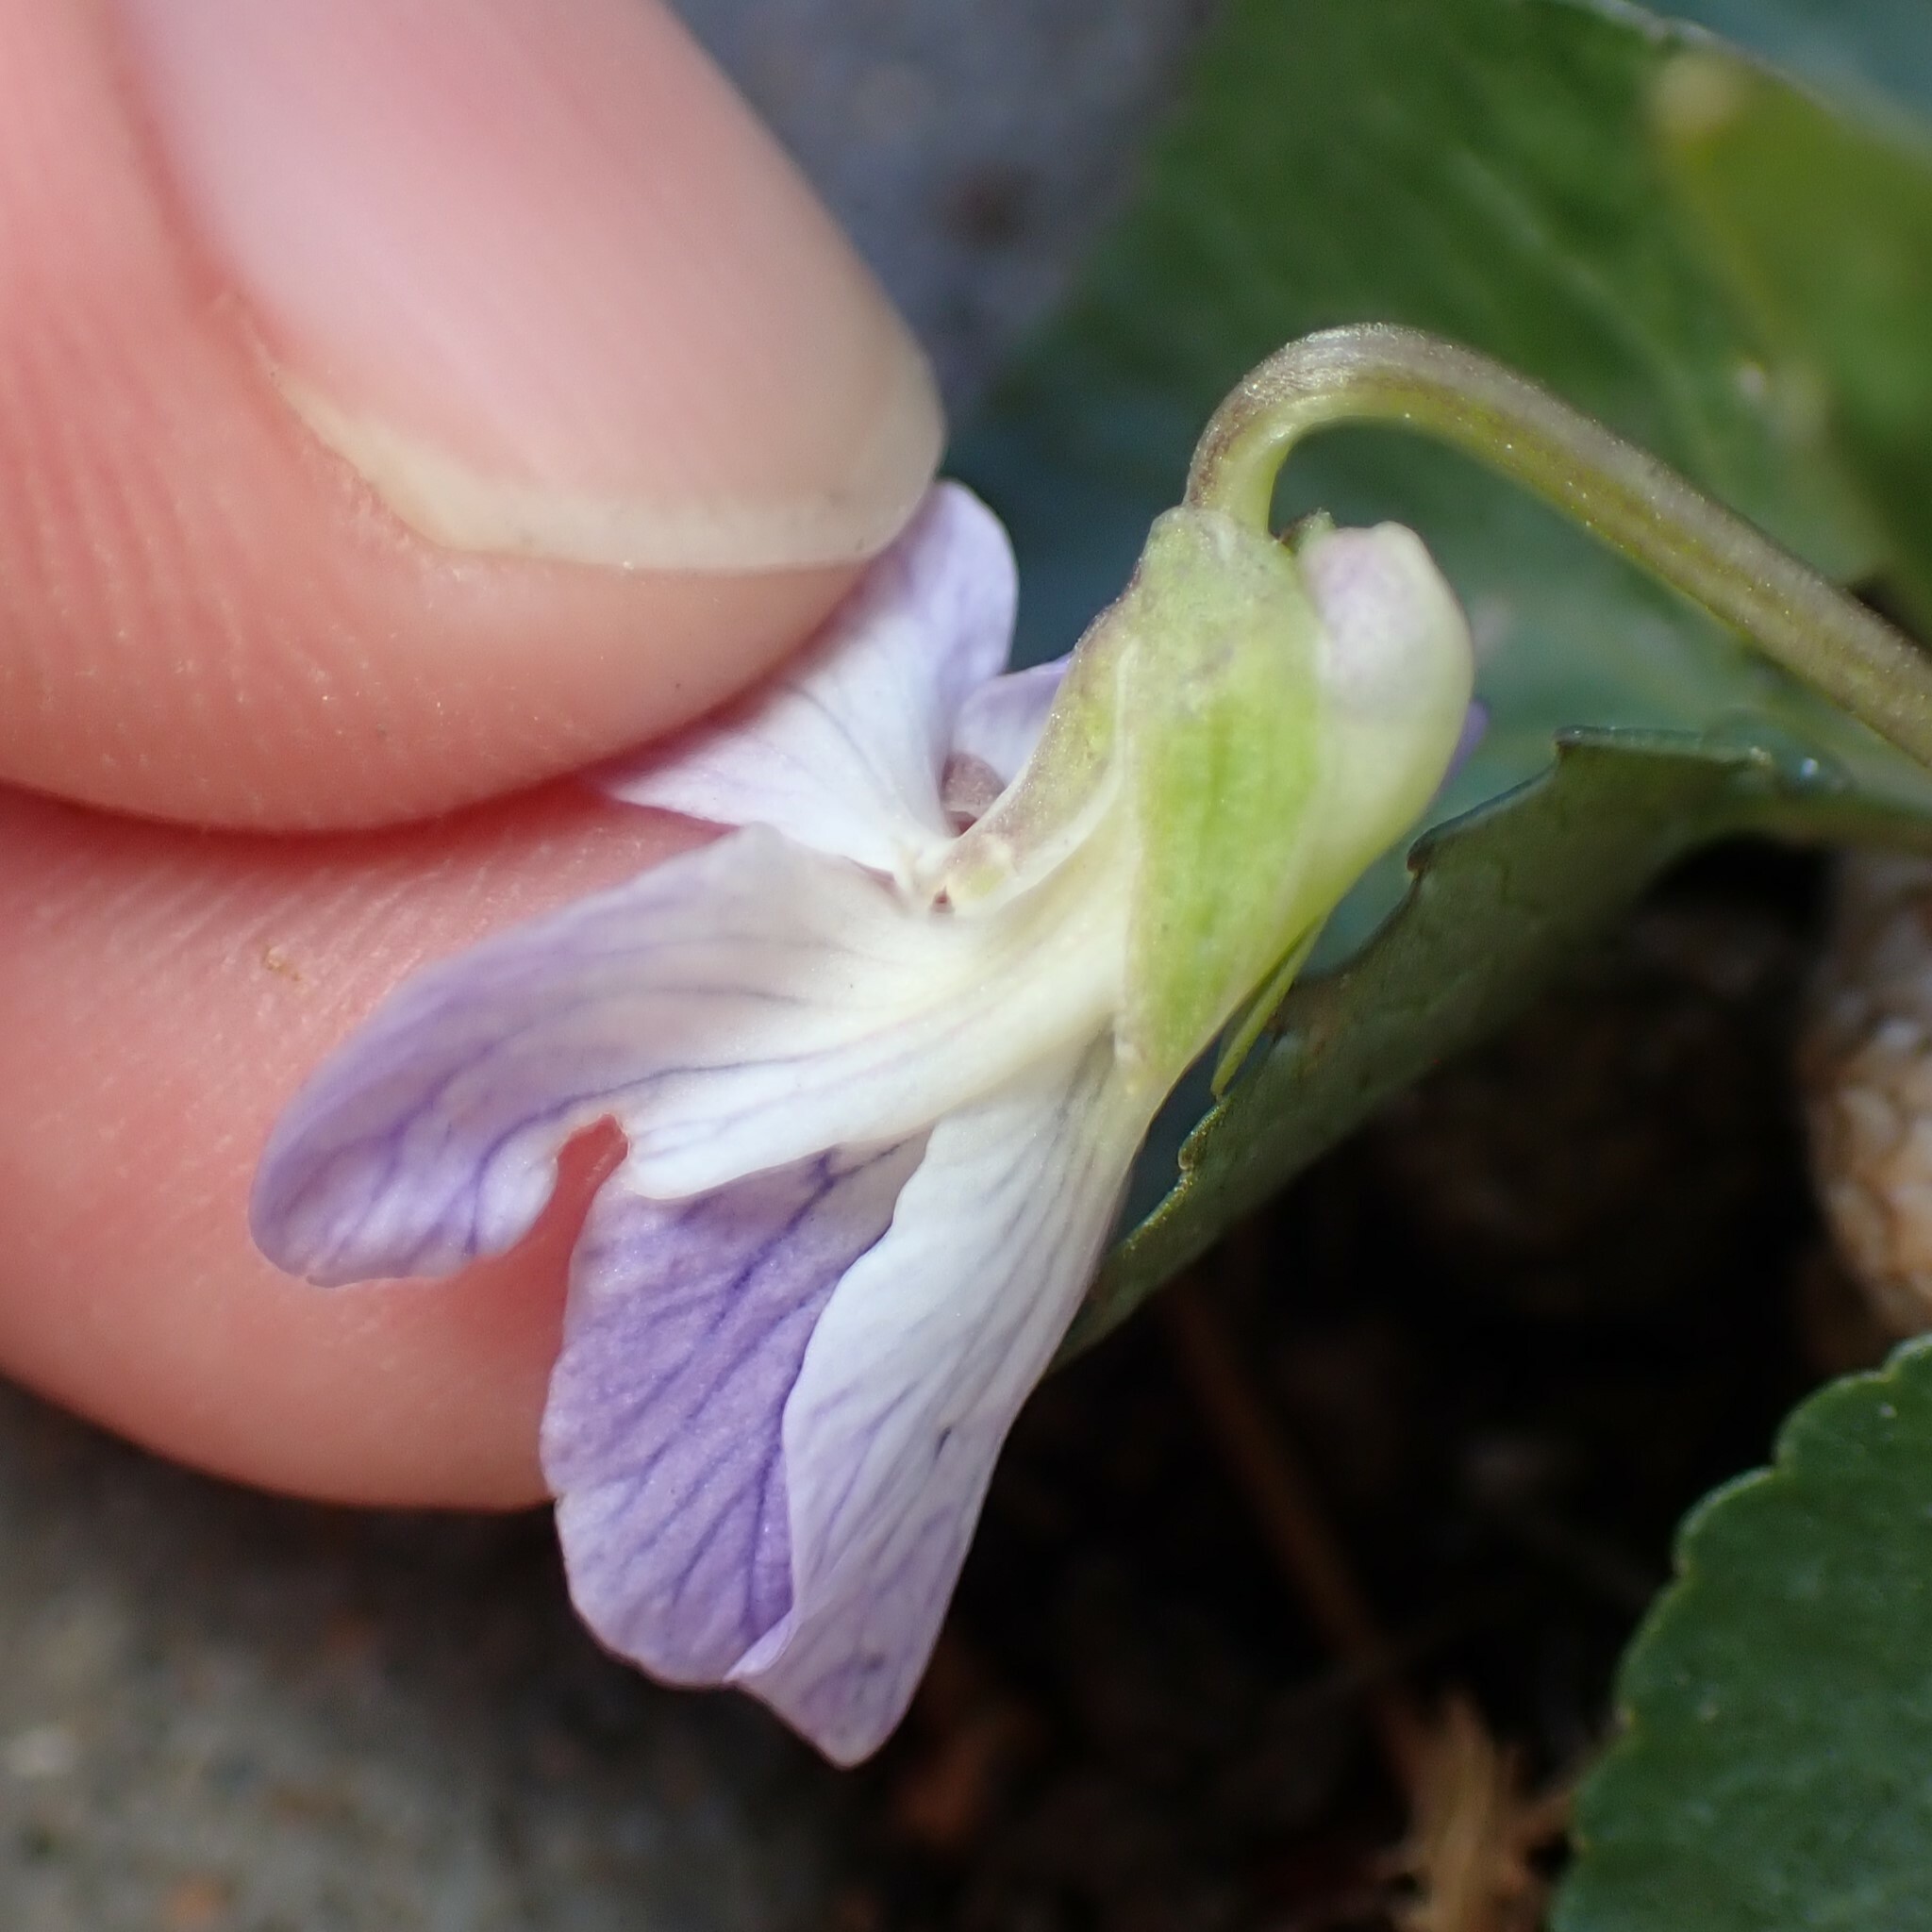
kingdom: Plantae
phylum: Tracheophyta
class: Magnoliopsida
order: Malpighiales
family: Violaceae
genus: Viola
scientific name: Viola sororia
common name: Dooryard violet
